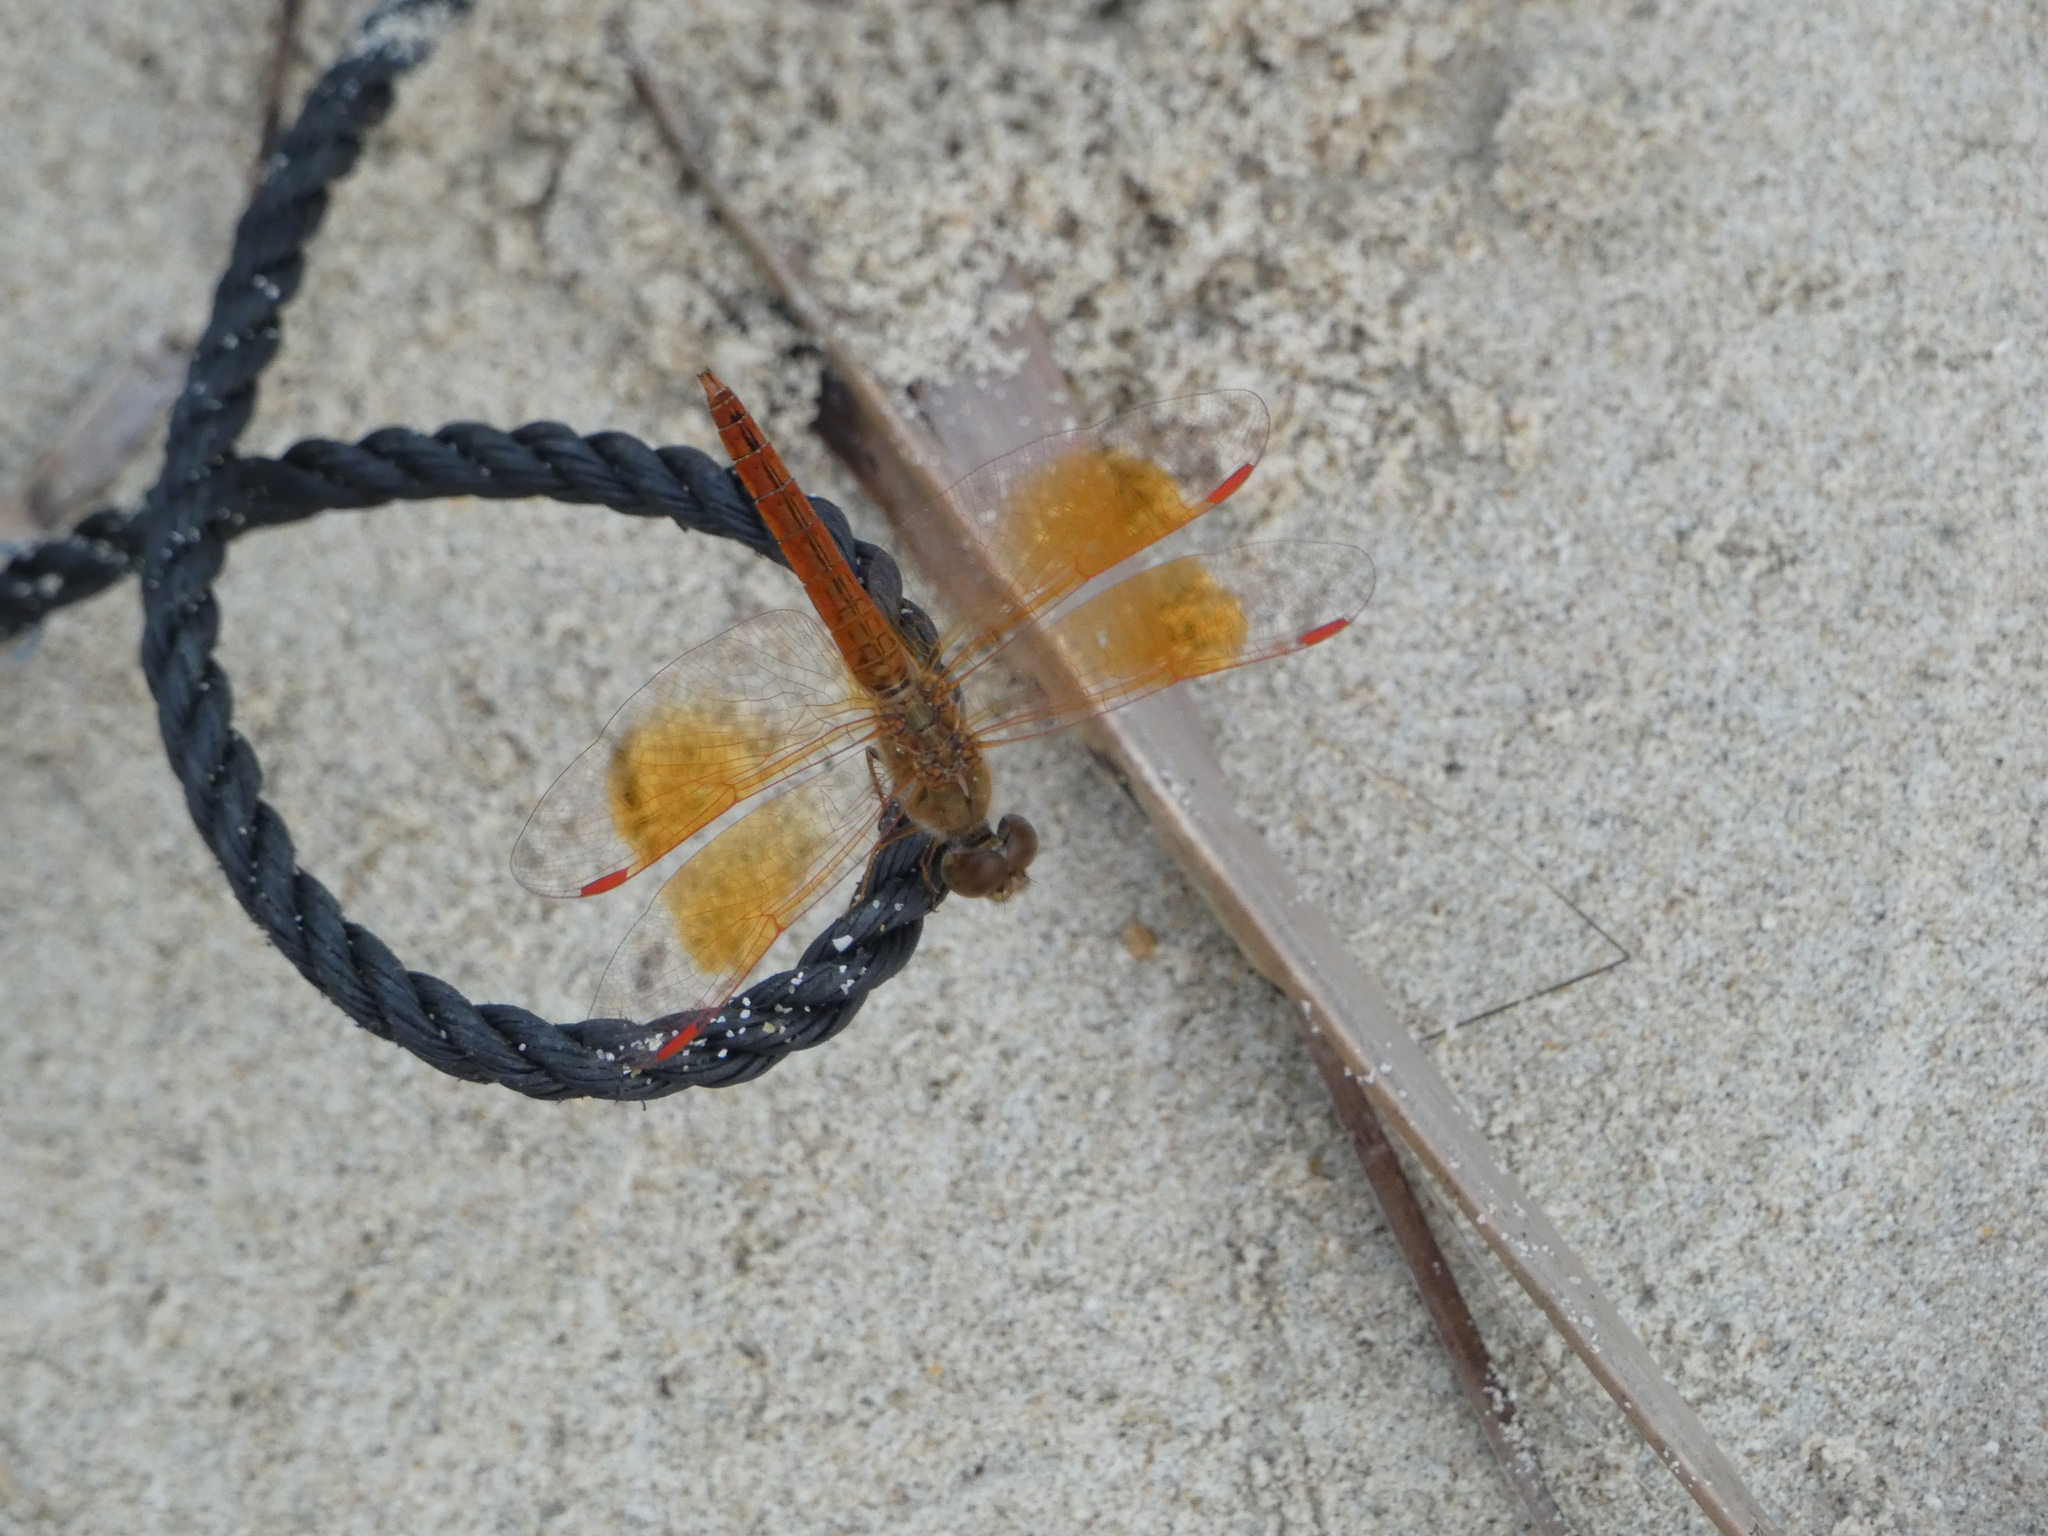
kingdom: Animalia
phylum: Arthropoda
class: Insecta
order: Odonata
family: Libellulidae
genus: Brachythemis
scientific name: Brachythemis contaminata
